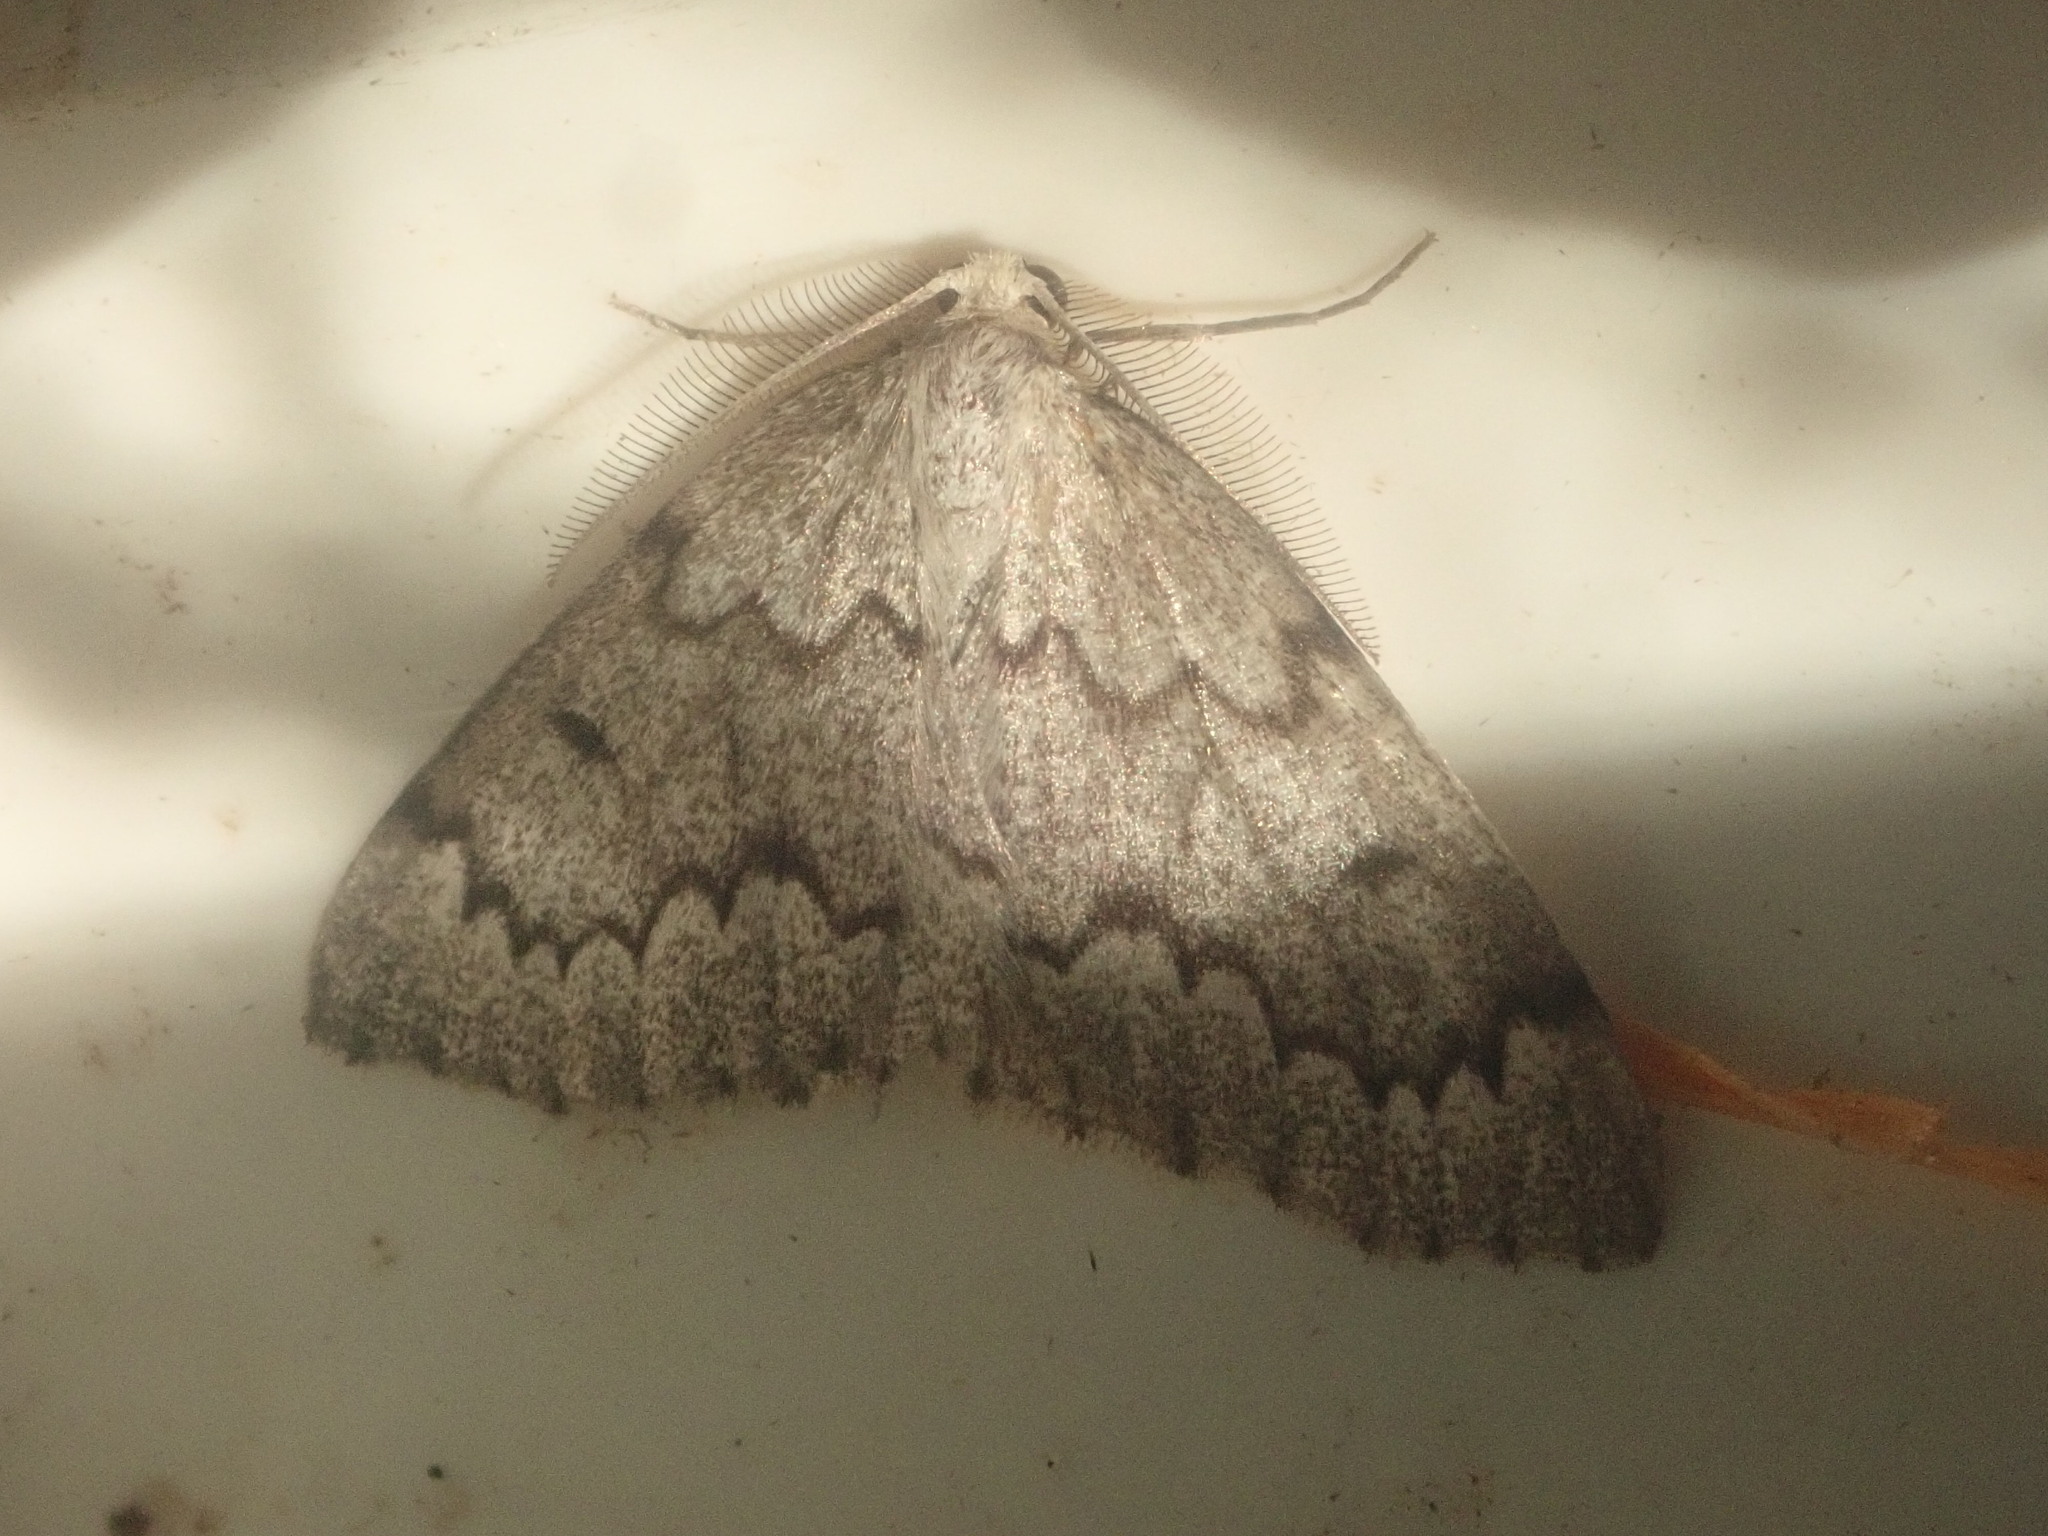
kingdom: Animalia
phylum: Arthropoda
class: Insecta
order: Lepidoptera
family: Geometridae
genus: Nepytia
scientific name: Nepytia canosaria
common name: False hemlock looper
